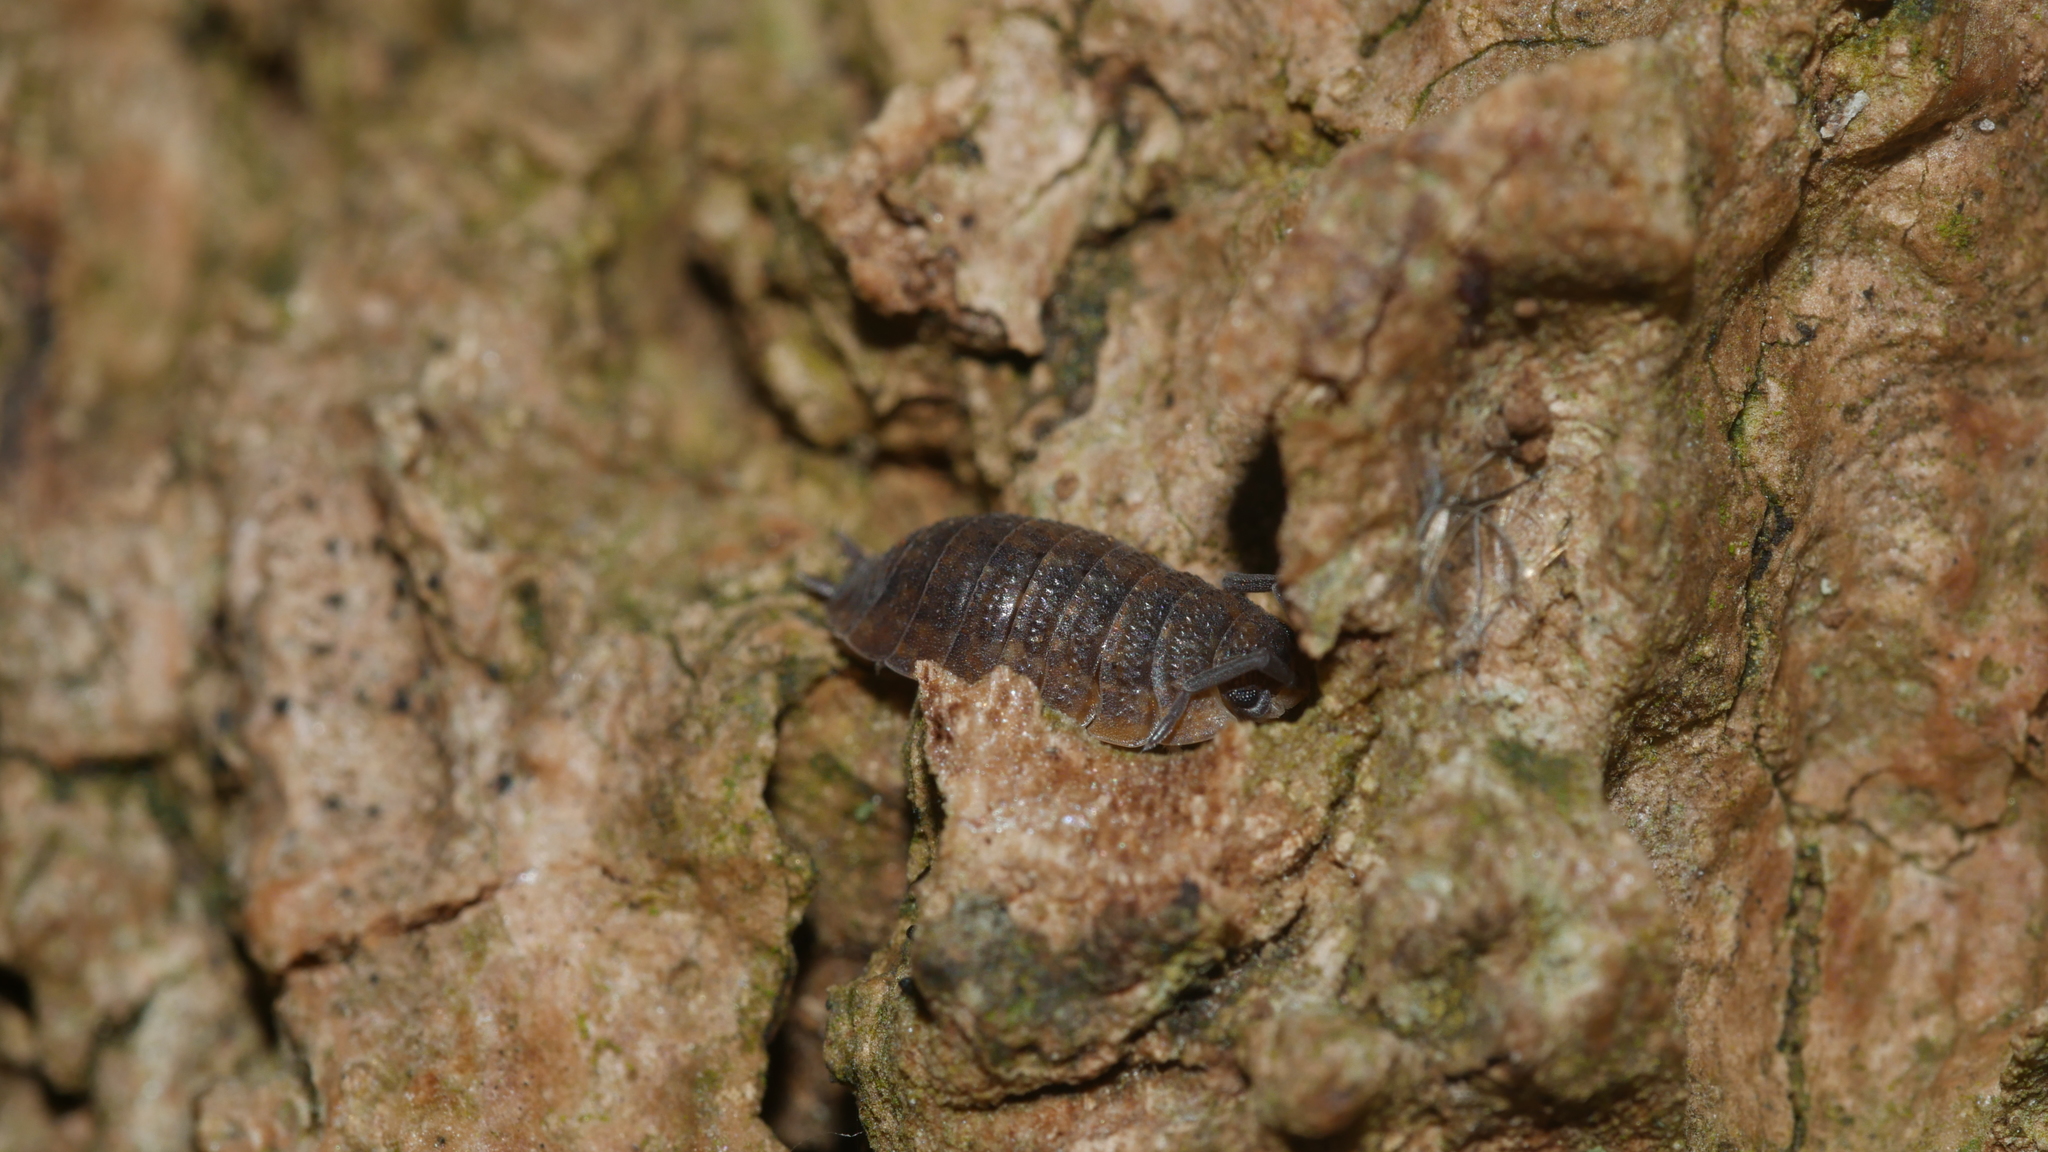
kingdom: Animalia
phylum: Arthropoda
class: Malacostraca
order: Isopoda
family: Porcellionidae
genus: Porcellio
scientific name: Porcellio scaber
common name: Common rough woodlouse
